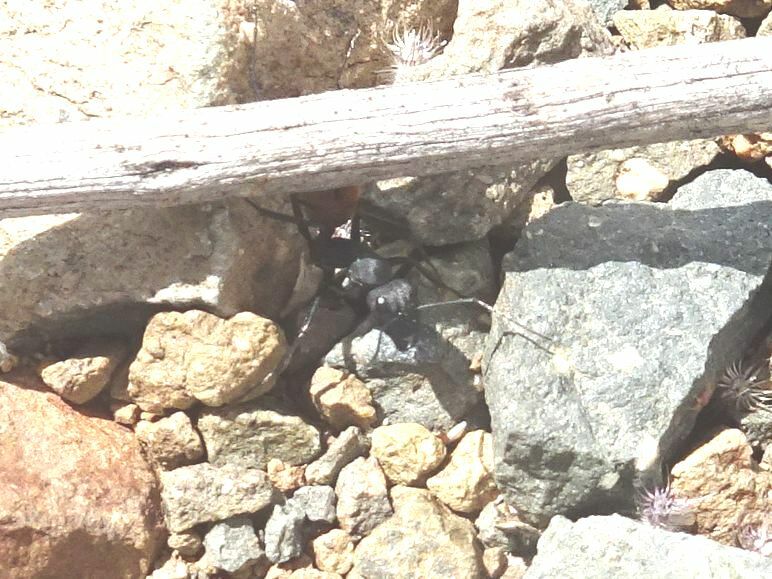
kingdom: Animalia
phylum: Arthropoda
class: Insecta
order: Hymenoptera
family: Formicidae
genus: Camponotus
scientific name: Camponotus fulvopilosus
